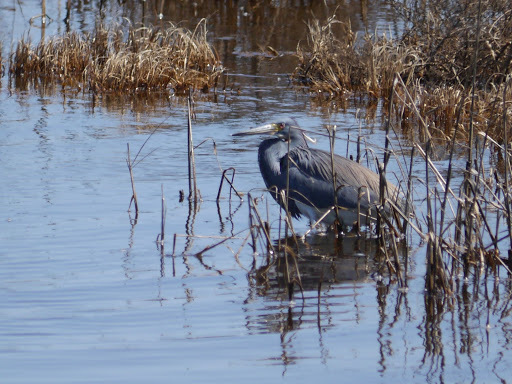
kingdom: Animalia
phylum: Chordata
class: Aves
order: Pelecaniformes
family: Ardeidae
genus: Egretta
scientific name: Egretta tricolor
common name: Tricolored heron
